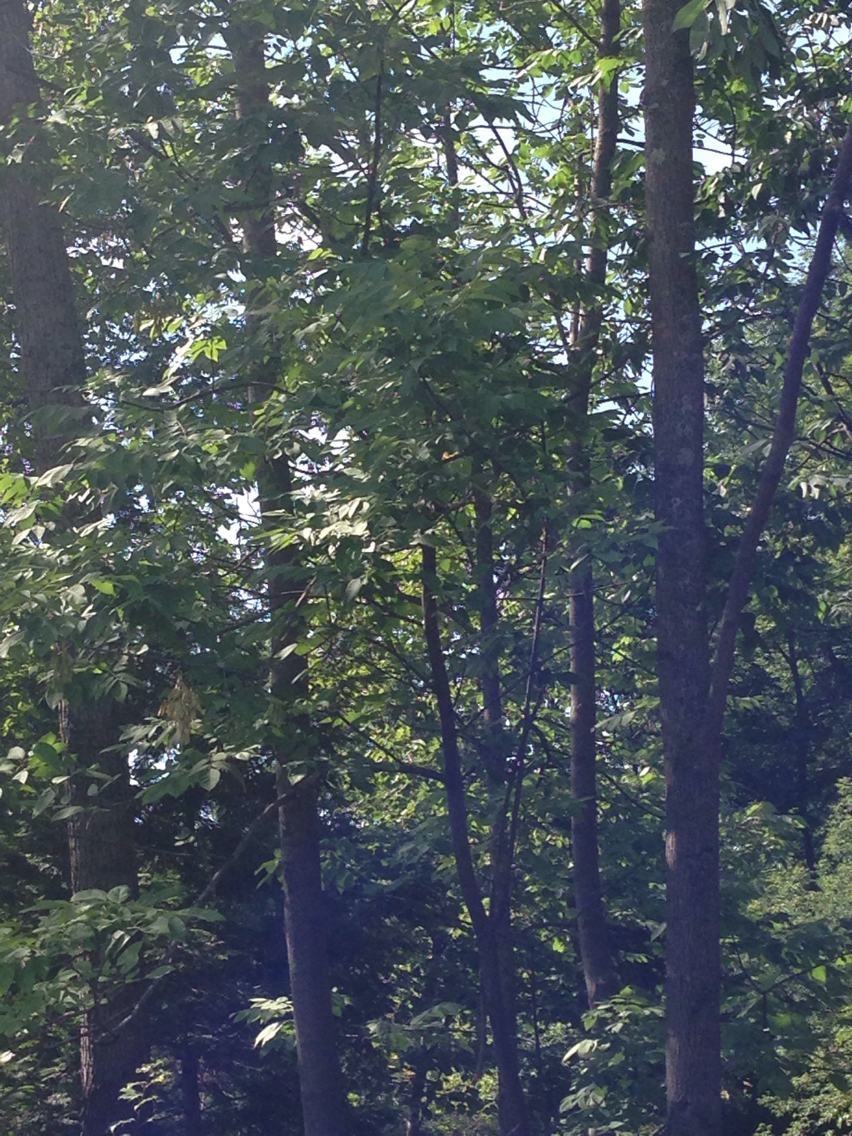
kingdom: Plantae
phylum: Tracheophyta
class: Magnoliopsida
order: Lamiales
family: Oleaceae
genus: Fraxinus
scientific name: Fraxinus americana
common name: White ash
